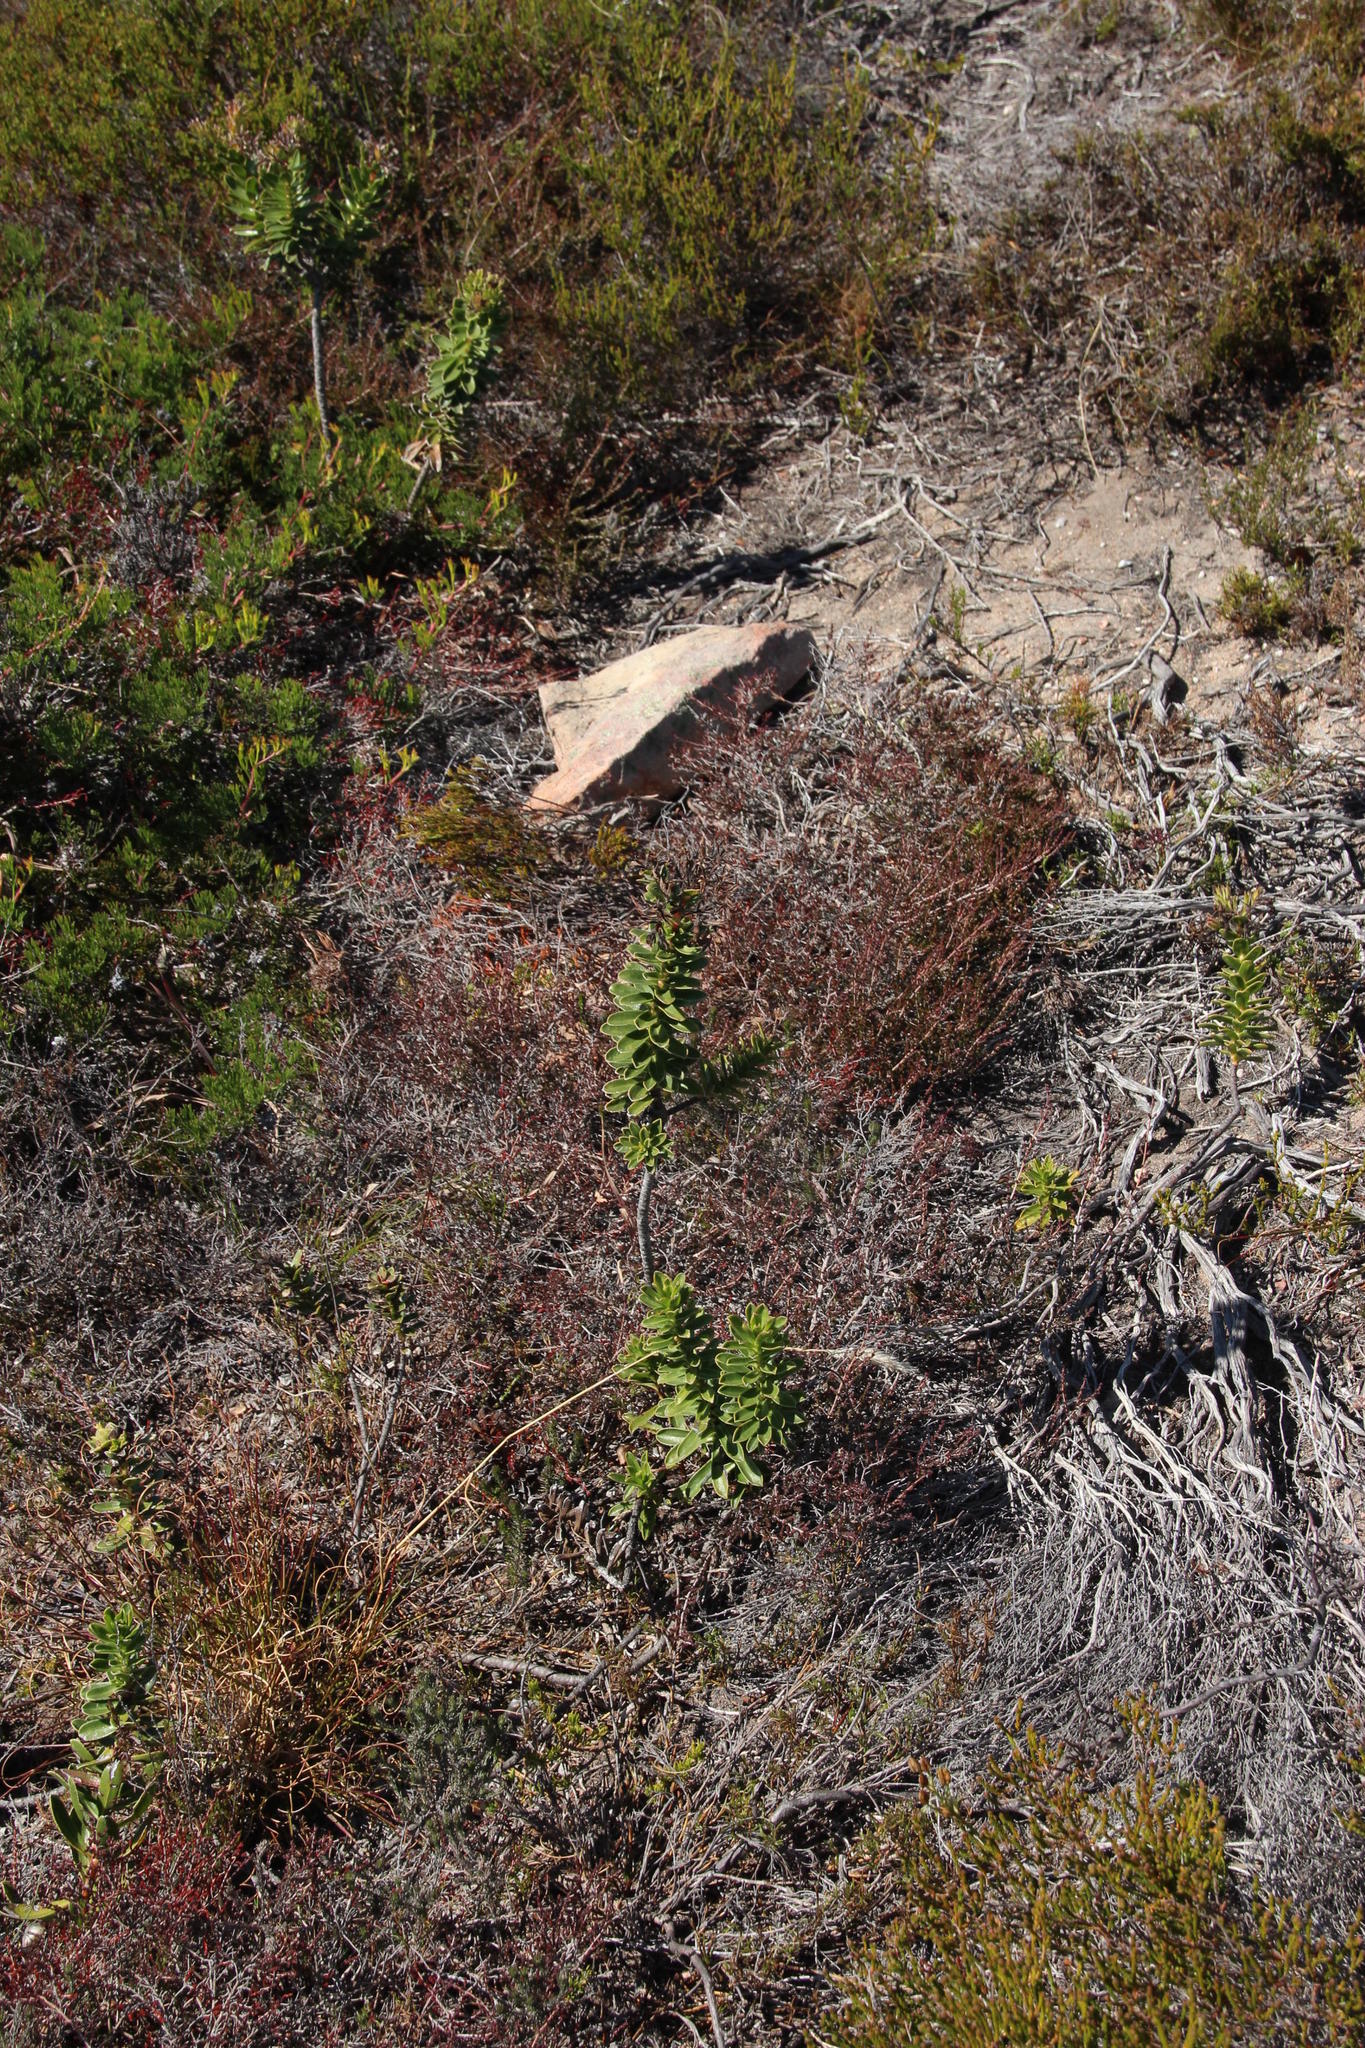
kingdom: Plantae
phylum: Tracheophyta
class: Magnoliopsida
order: Boraginales
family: Boraginaceae
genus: Lobostemon
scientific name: Lobostemon daltonii
